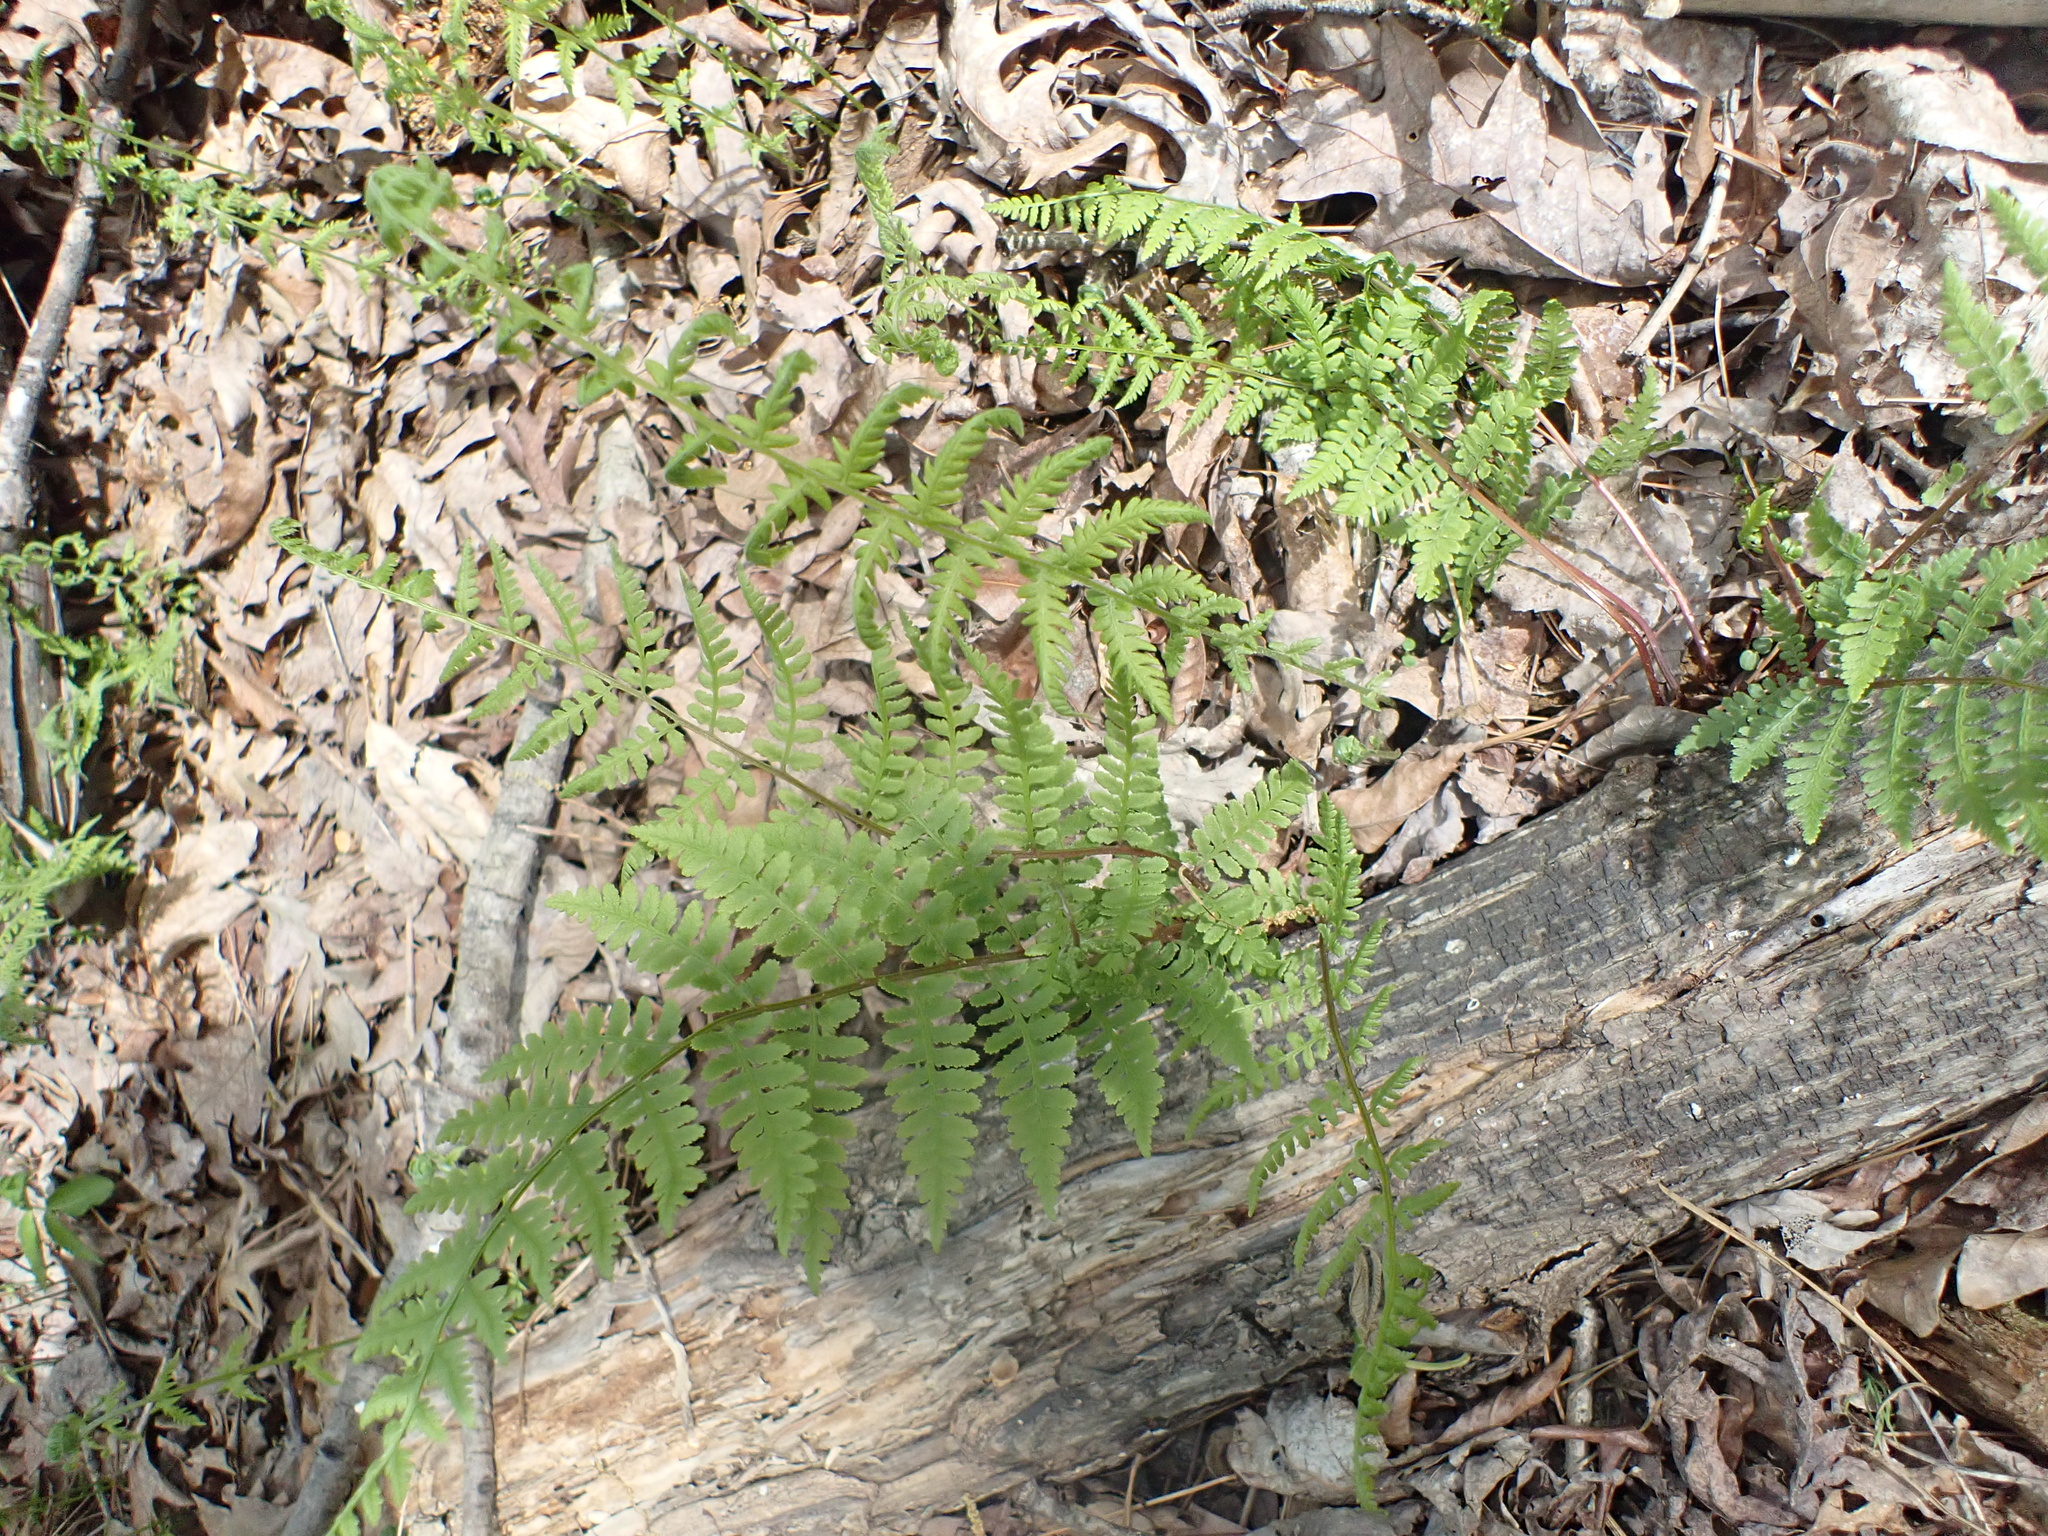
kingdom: Plantae
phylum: Tracheophyta
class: Polypodiopsida
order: Polypodiales
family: Athyriaceae
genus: Athyrium
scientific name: Athyrium asplenioides
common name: Southern lady fern
